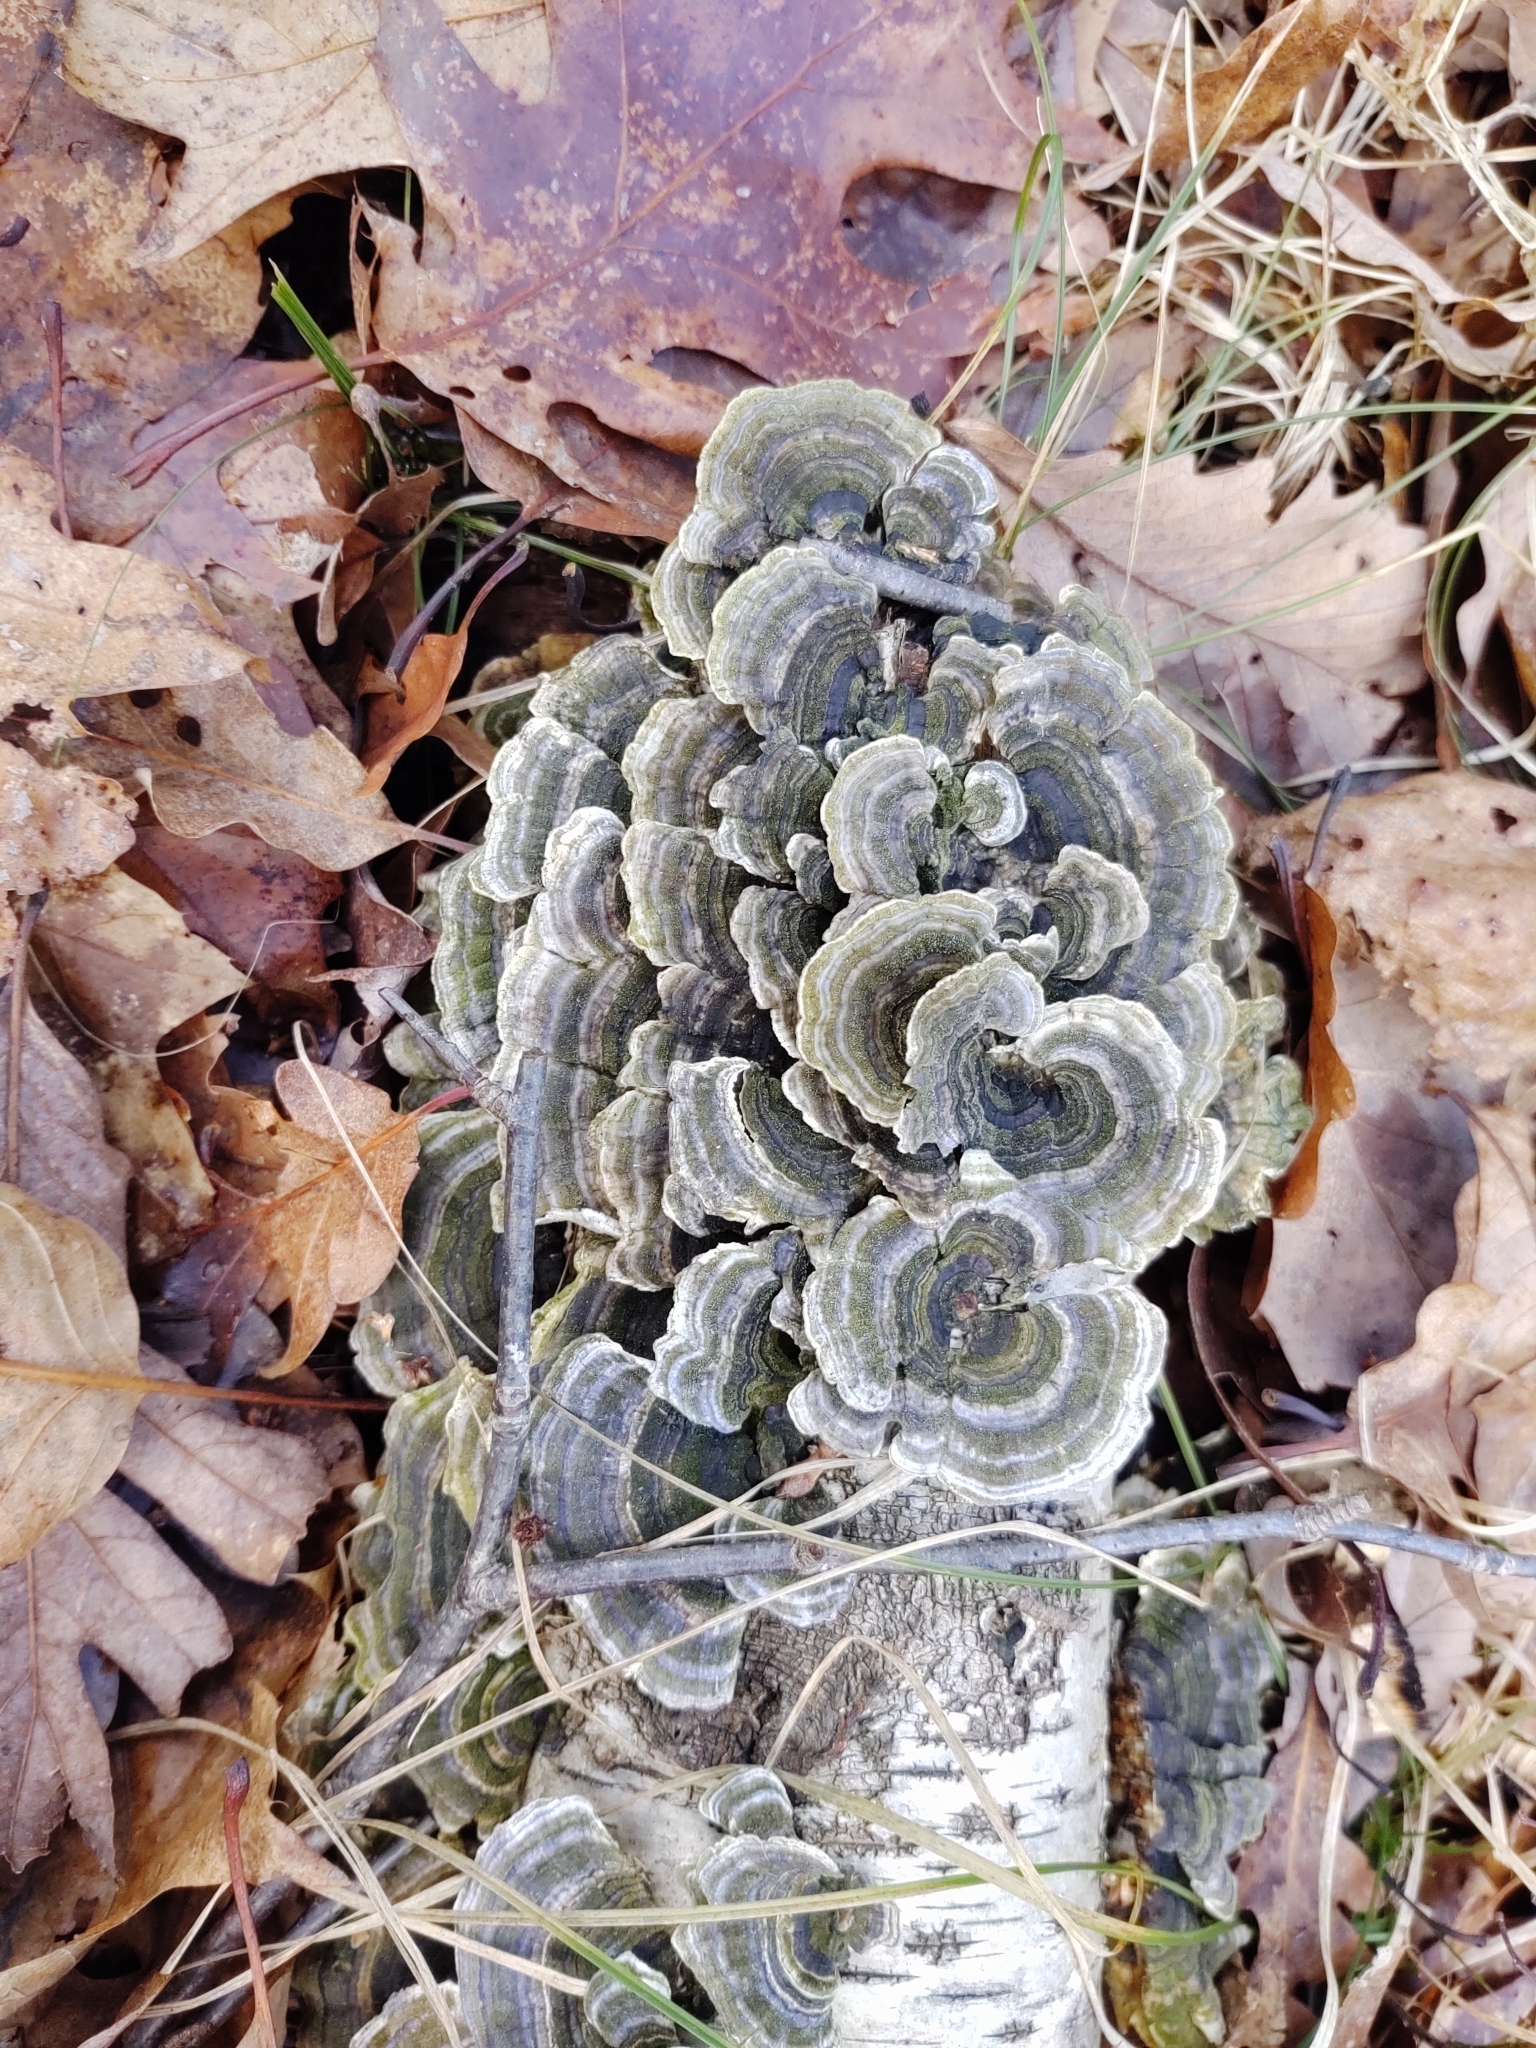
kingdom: Fungi
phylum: Basidiomycota
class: Agaricomycetes
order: Polyporales
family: Polyporaceae
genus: Trametes
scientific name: Trametes versicolor
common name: Turkeytail
